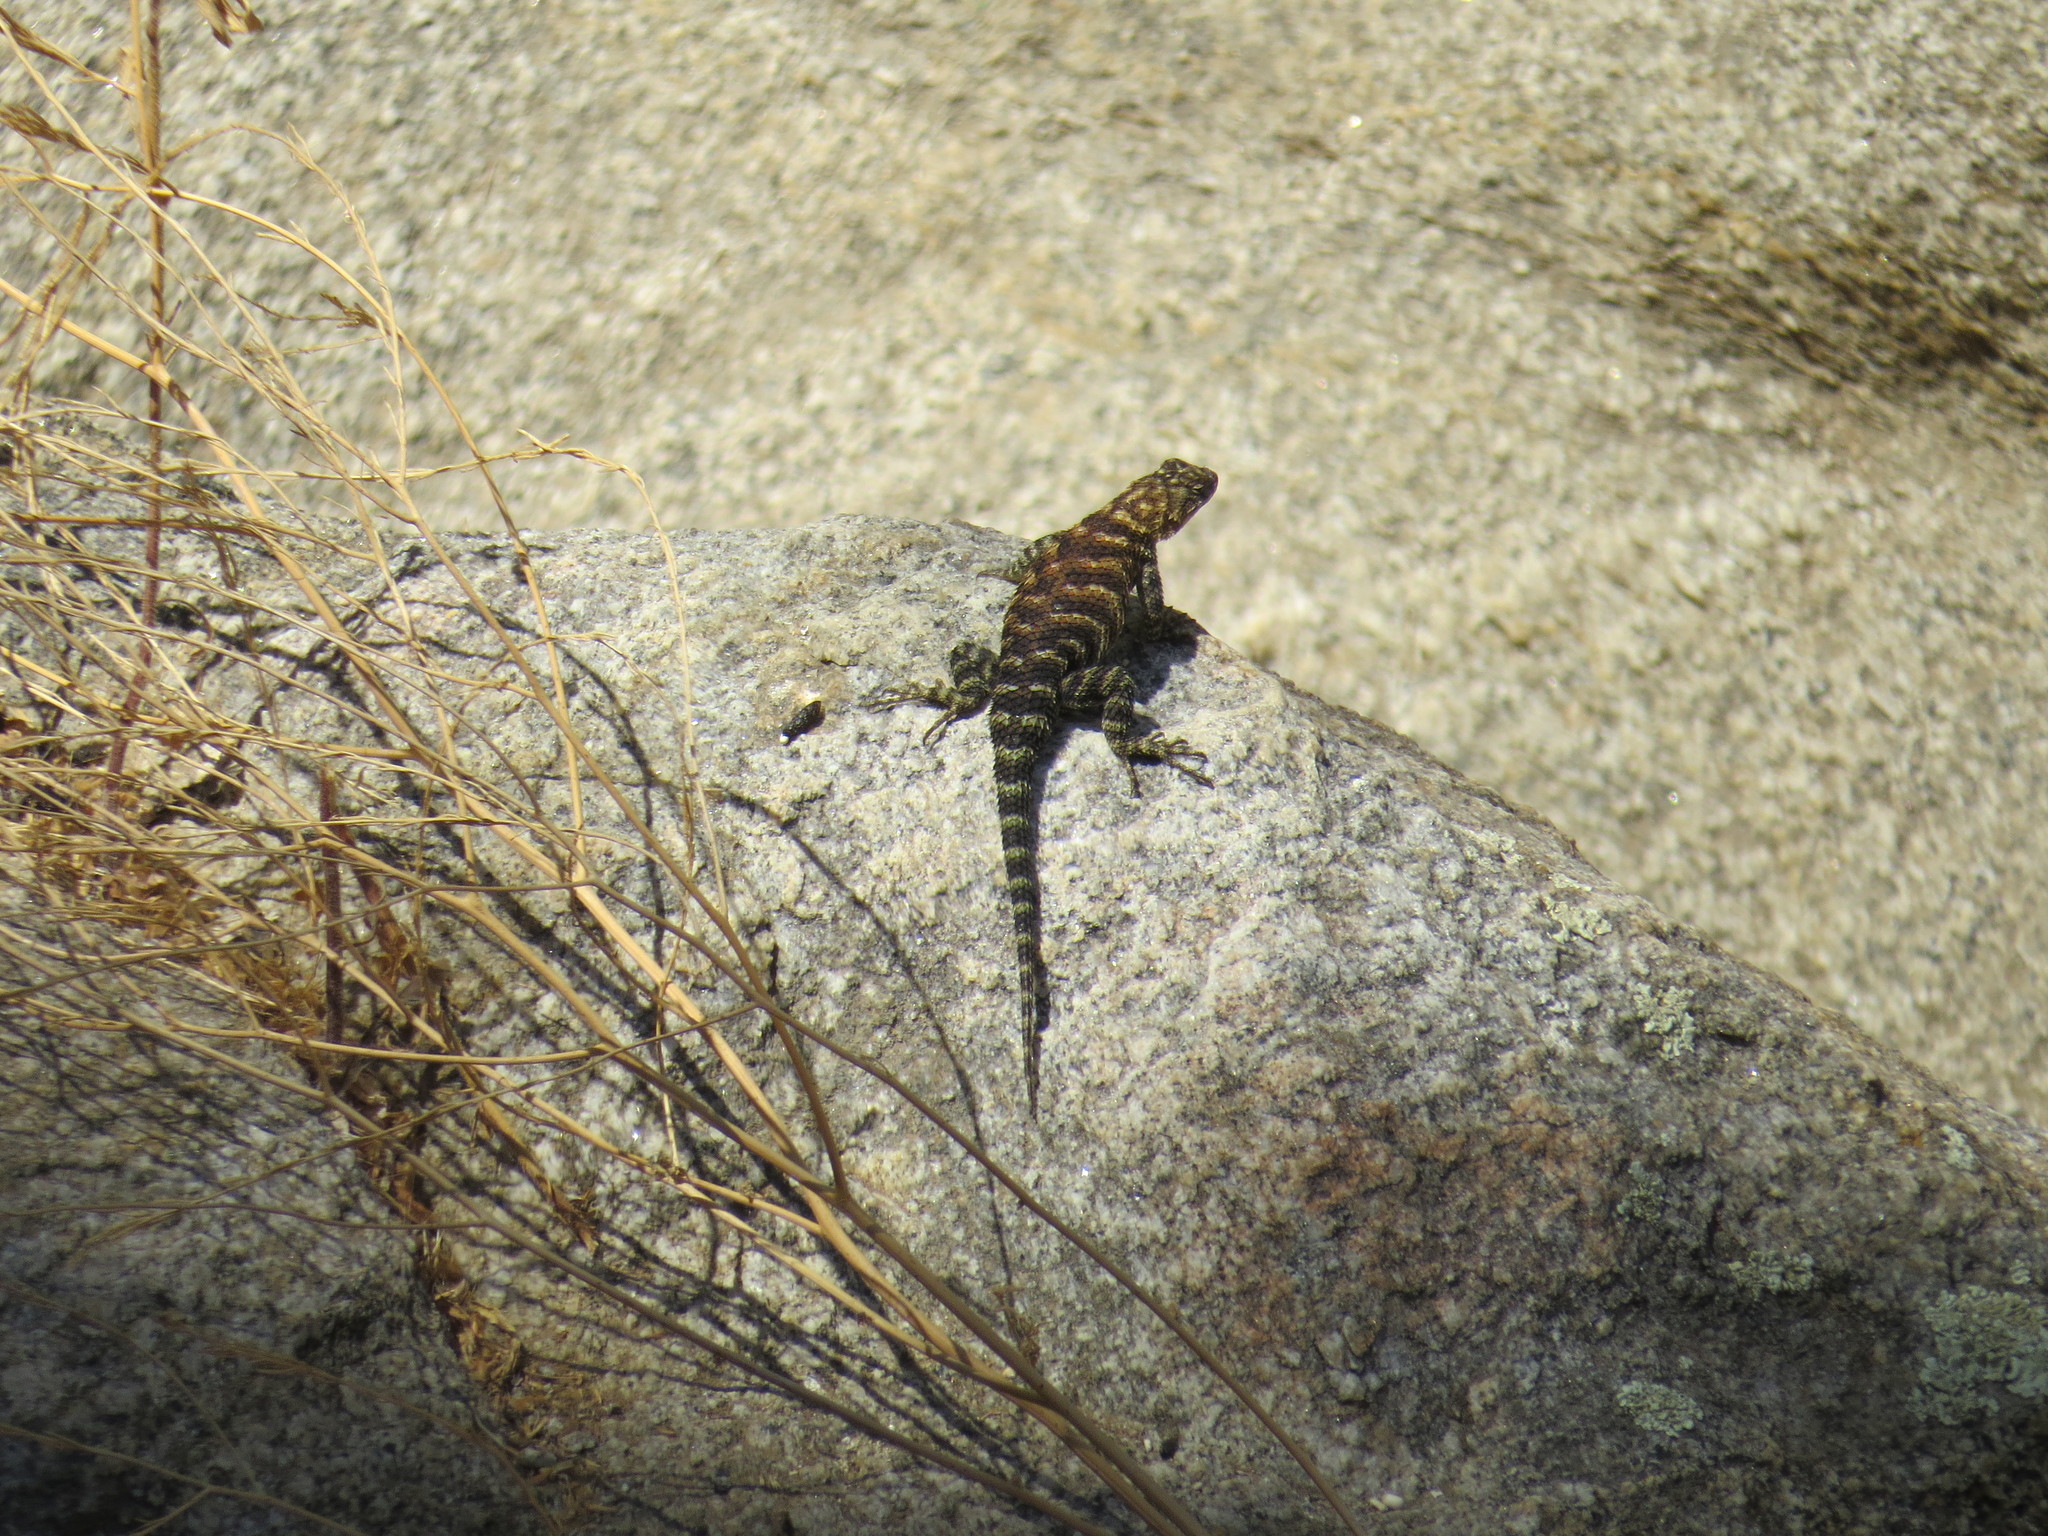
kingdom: Animalia
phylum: Chordata
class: Squamata
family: Phrynosomatidae
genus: Sceloporus
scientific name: Sceloporus orcutti
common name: Granite spiny lizard
